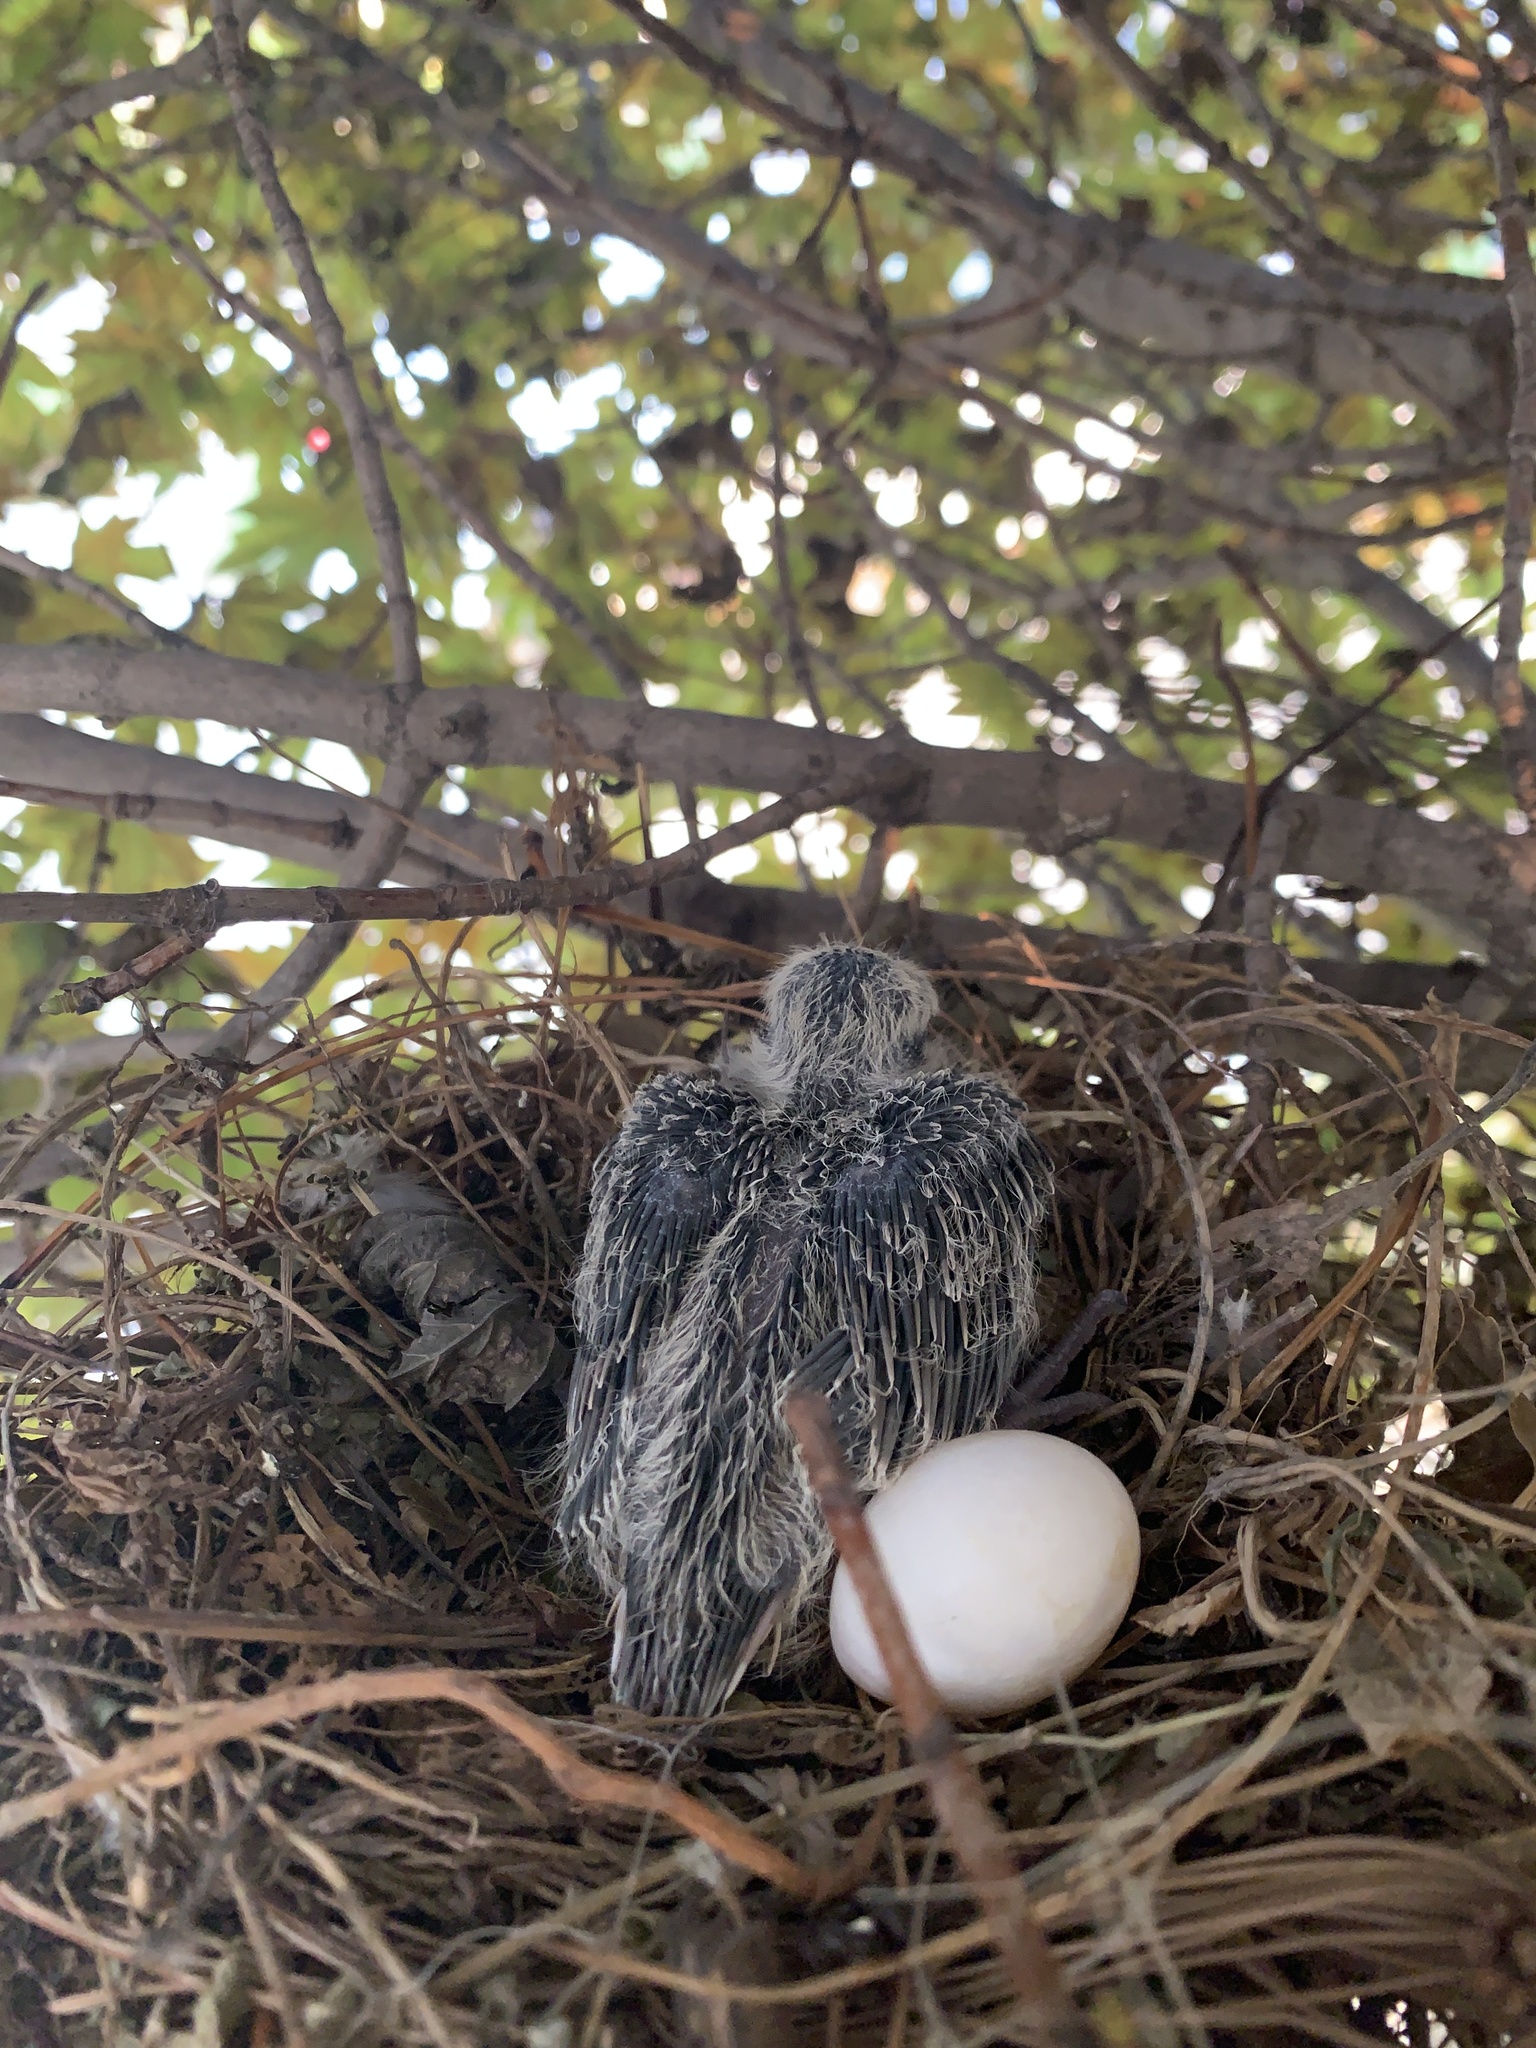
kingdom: Animalia
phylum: Chordata
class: Aves
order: Columbiformes
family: Columbidae
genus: Zenaida
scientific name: Zenaida macroura
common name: Mourning dove
